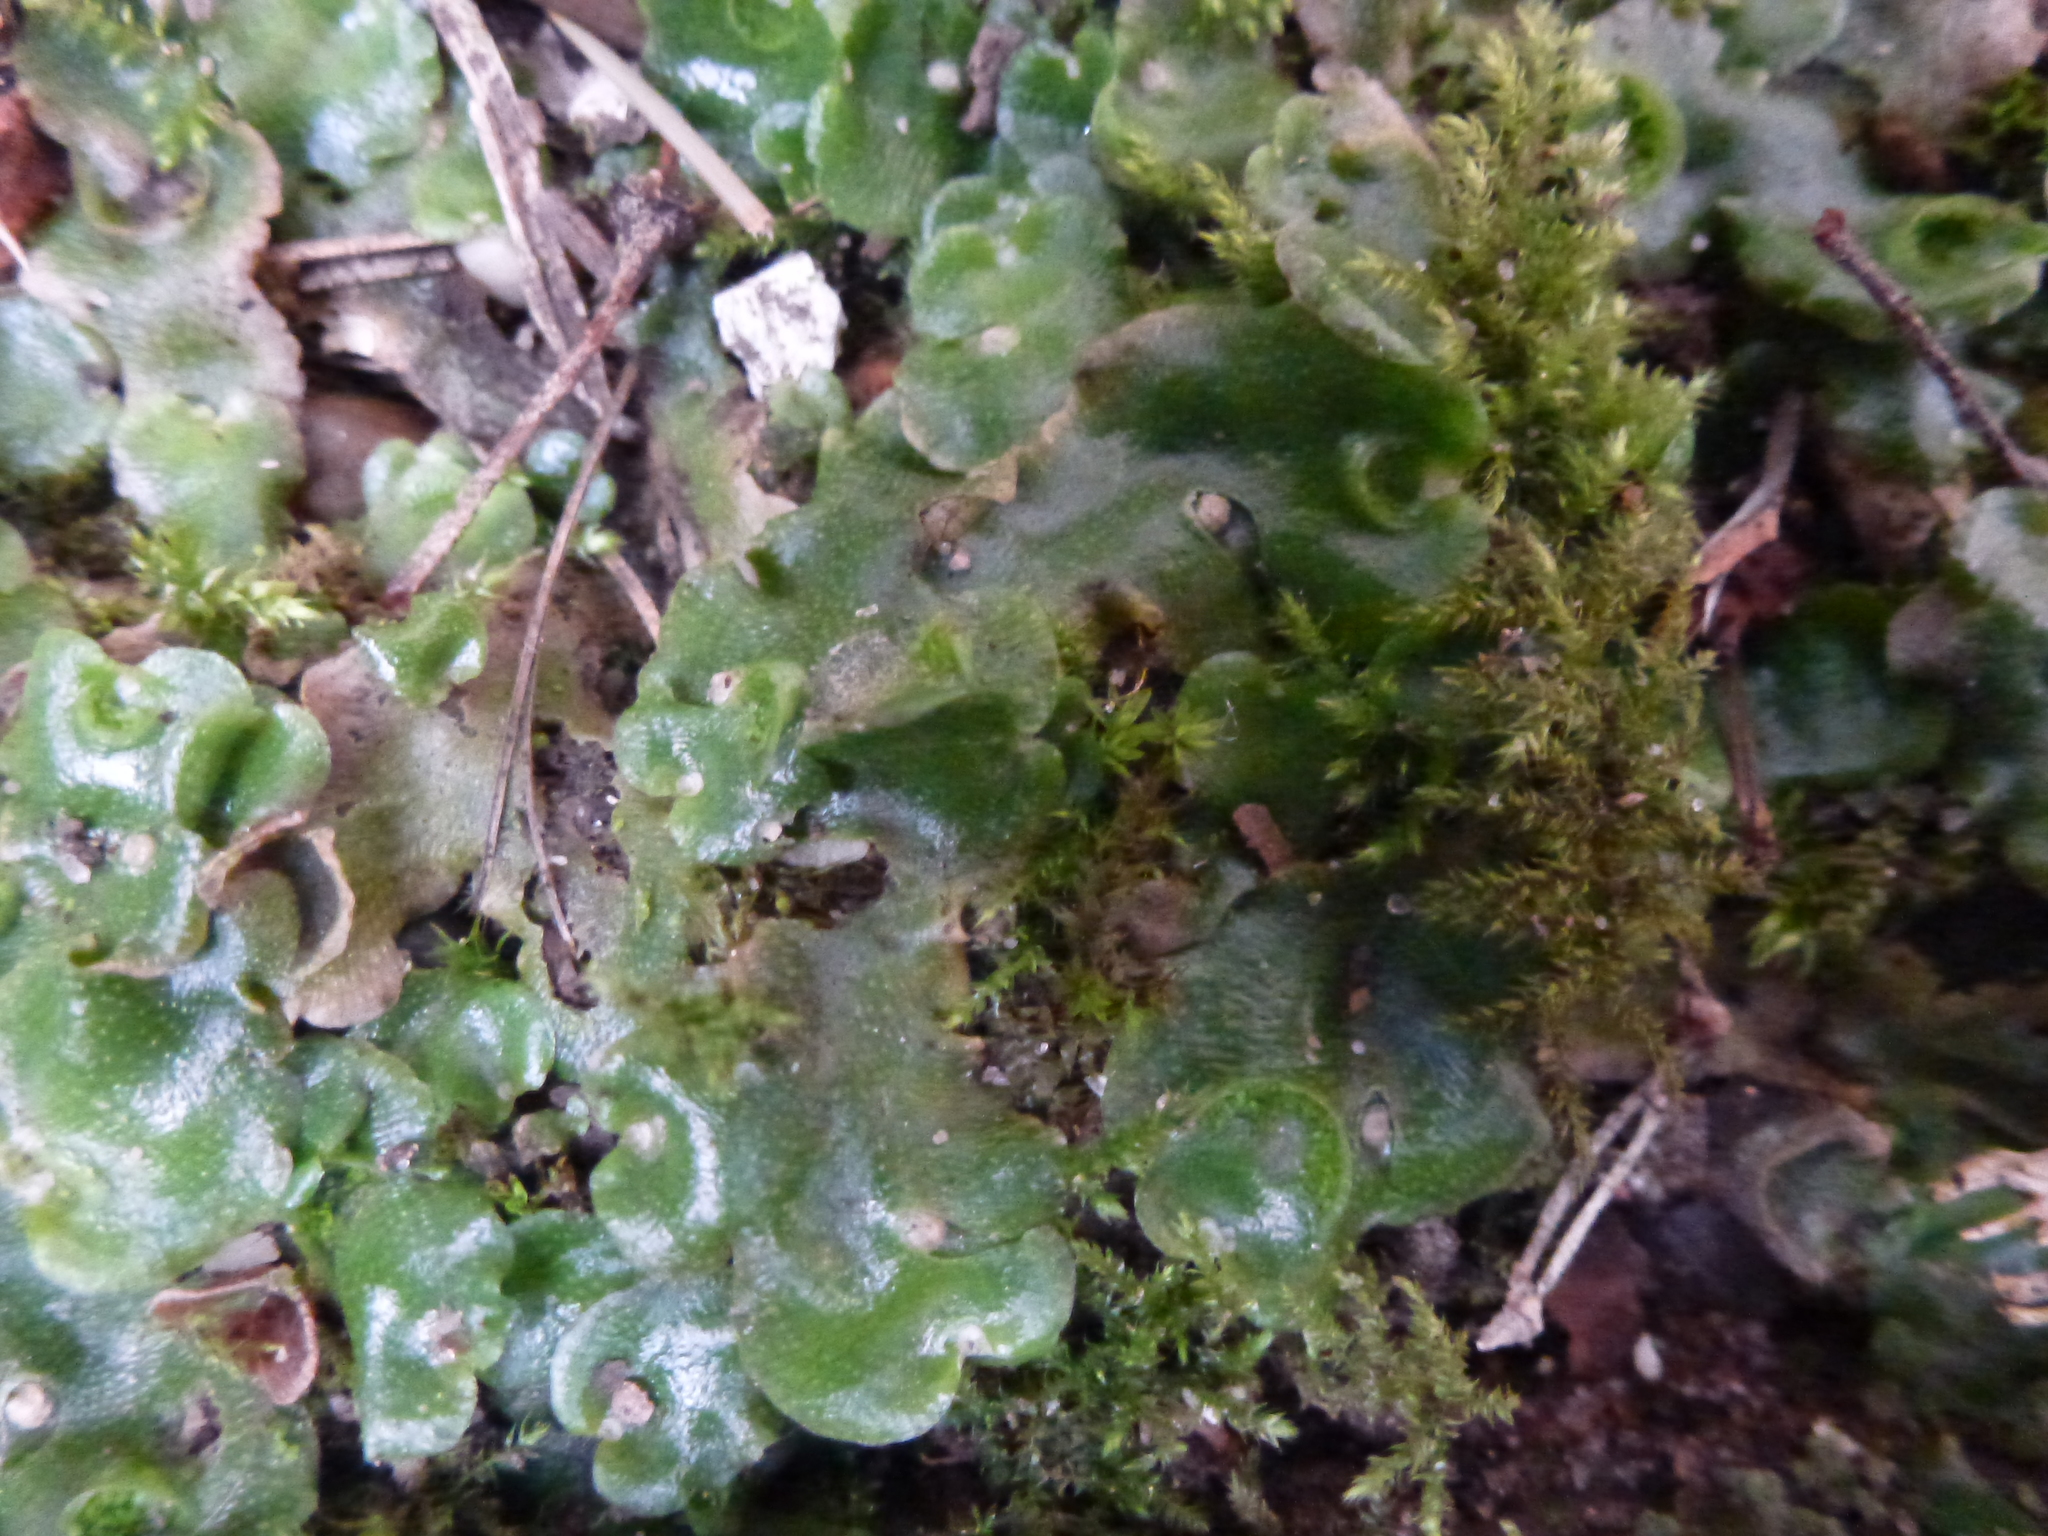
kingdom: Plantae
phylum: Marchantiophyta
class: Marchantiopsida
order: Lunulariales
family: Lunulariaceae
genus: Lunularia
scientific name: Lunularia cruciata
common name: Crescent-cup liverwort
